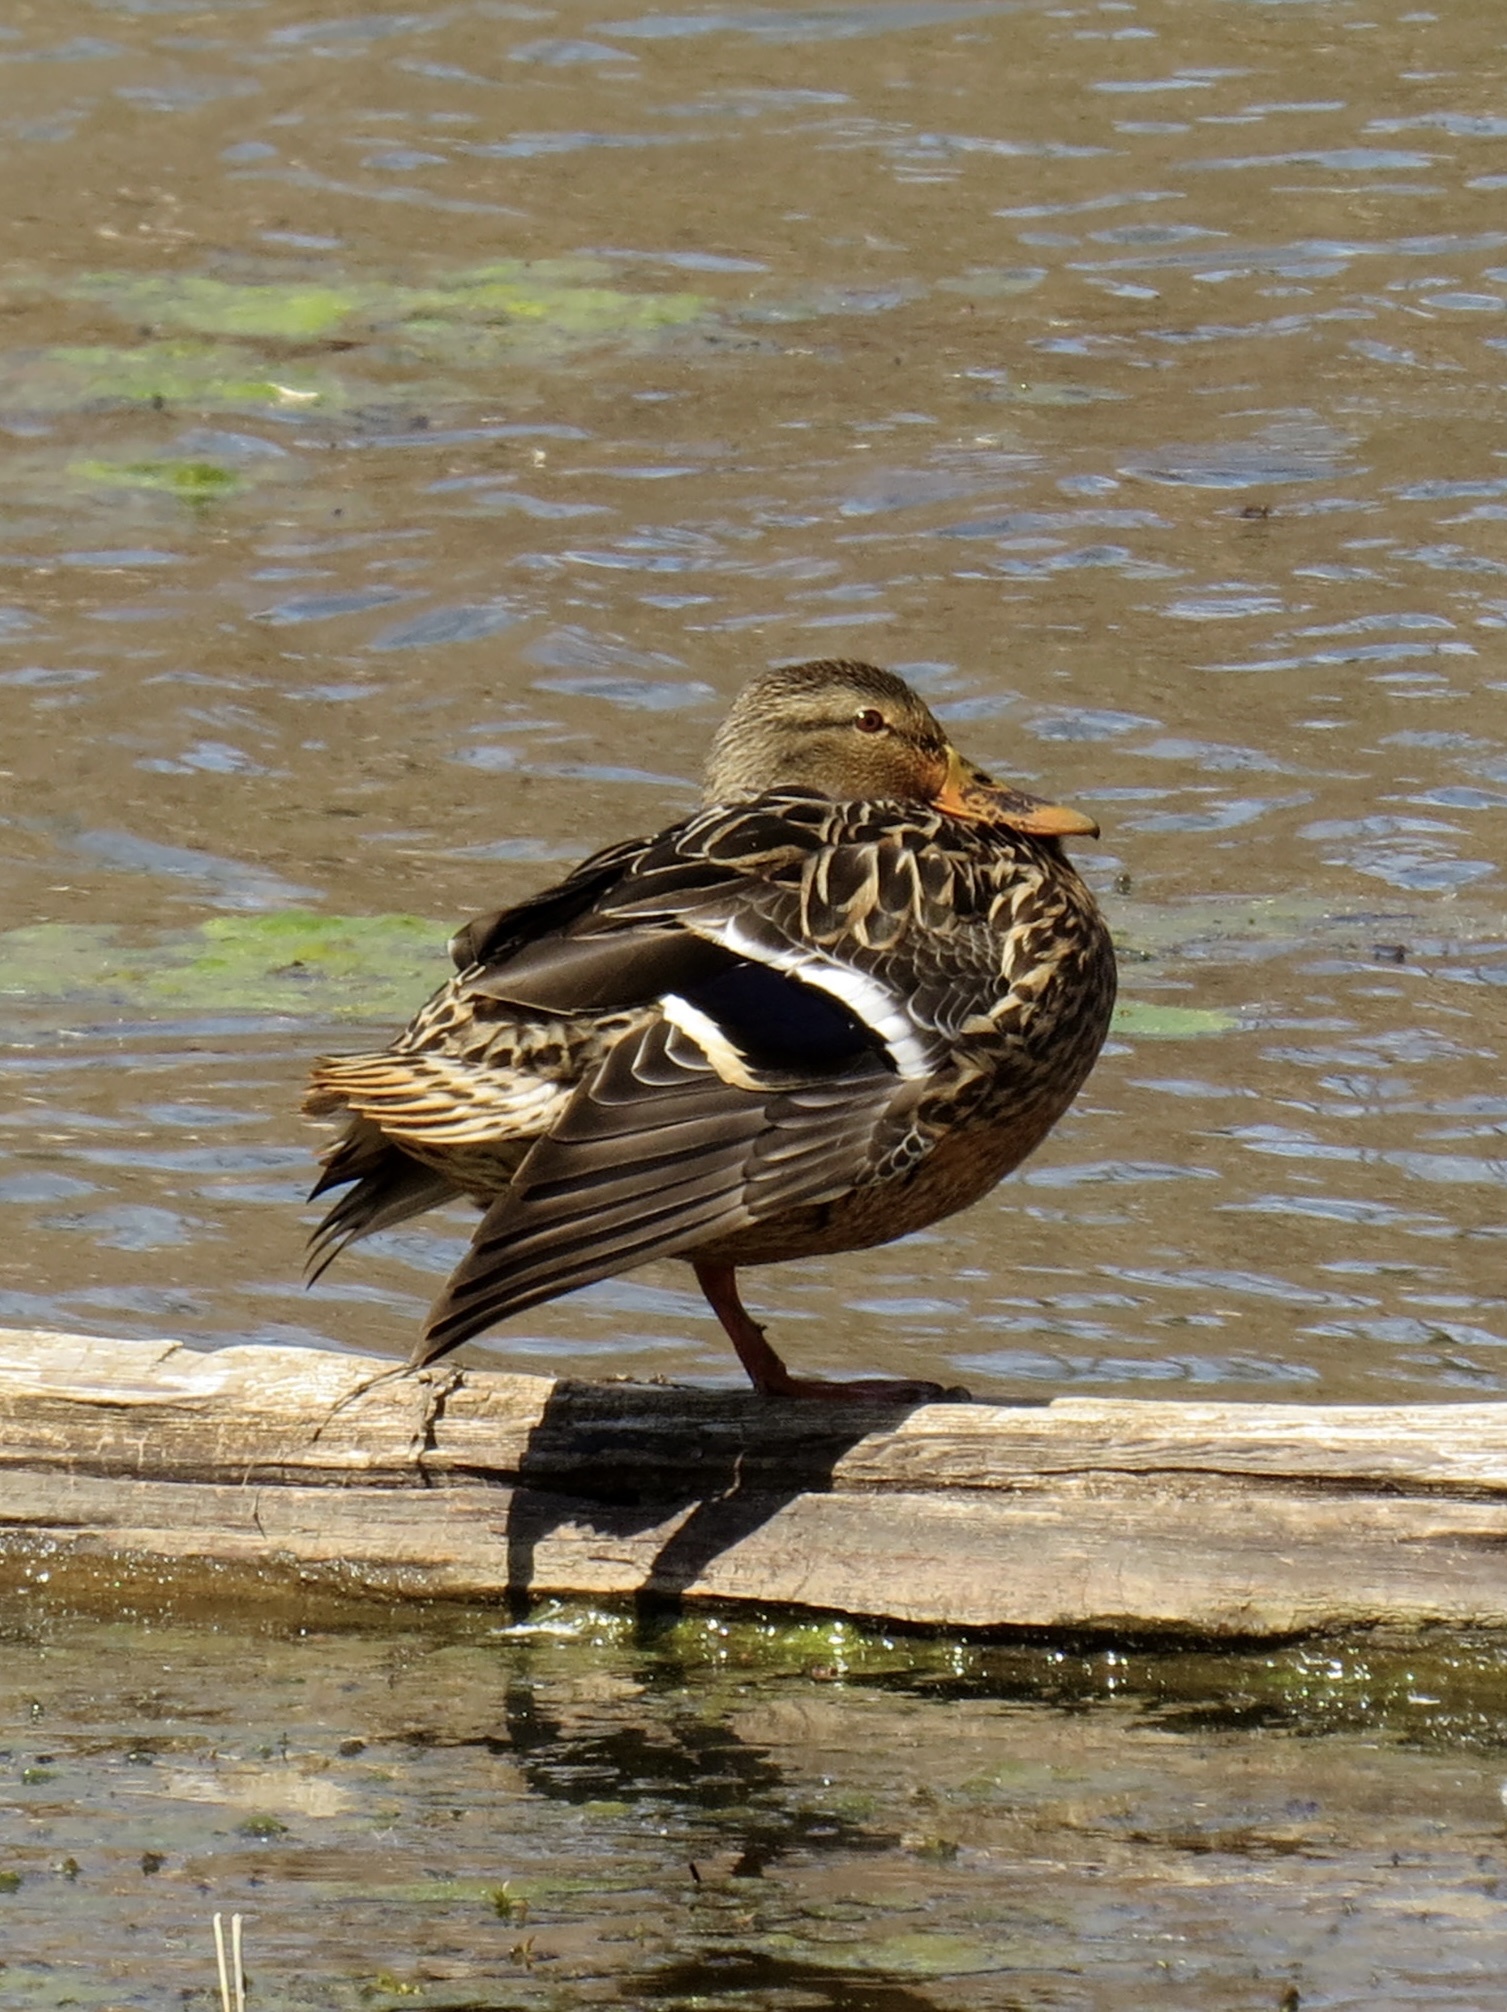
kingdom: Animalia
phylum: Chordata
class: Aves
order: Anseriformes
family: Anatidae
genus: Anas
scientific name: Anas platyrhynchos
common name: Mallard
